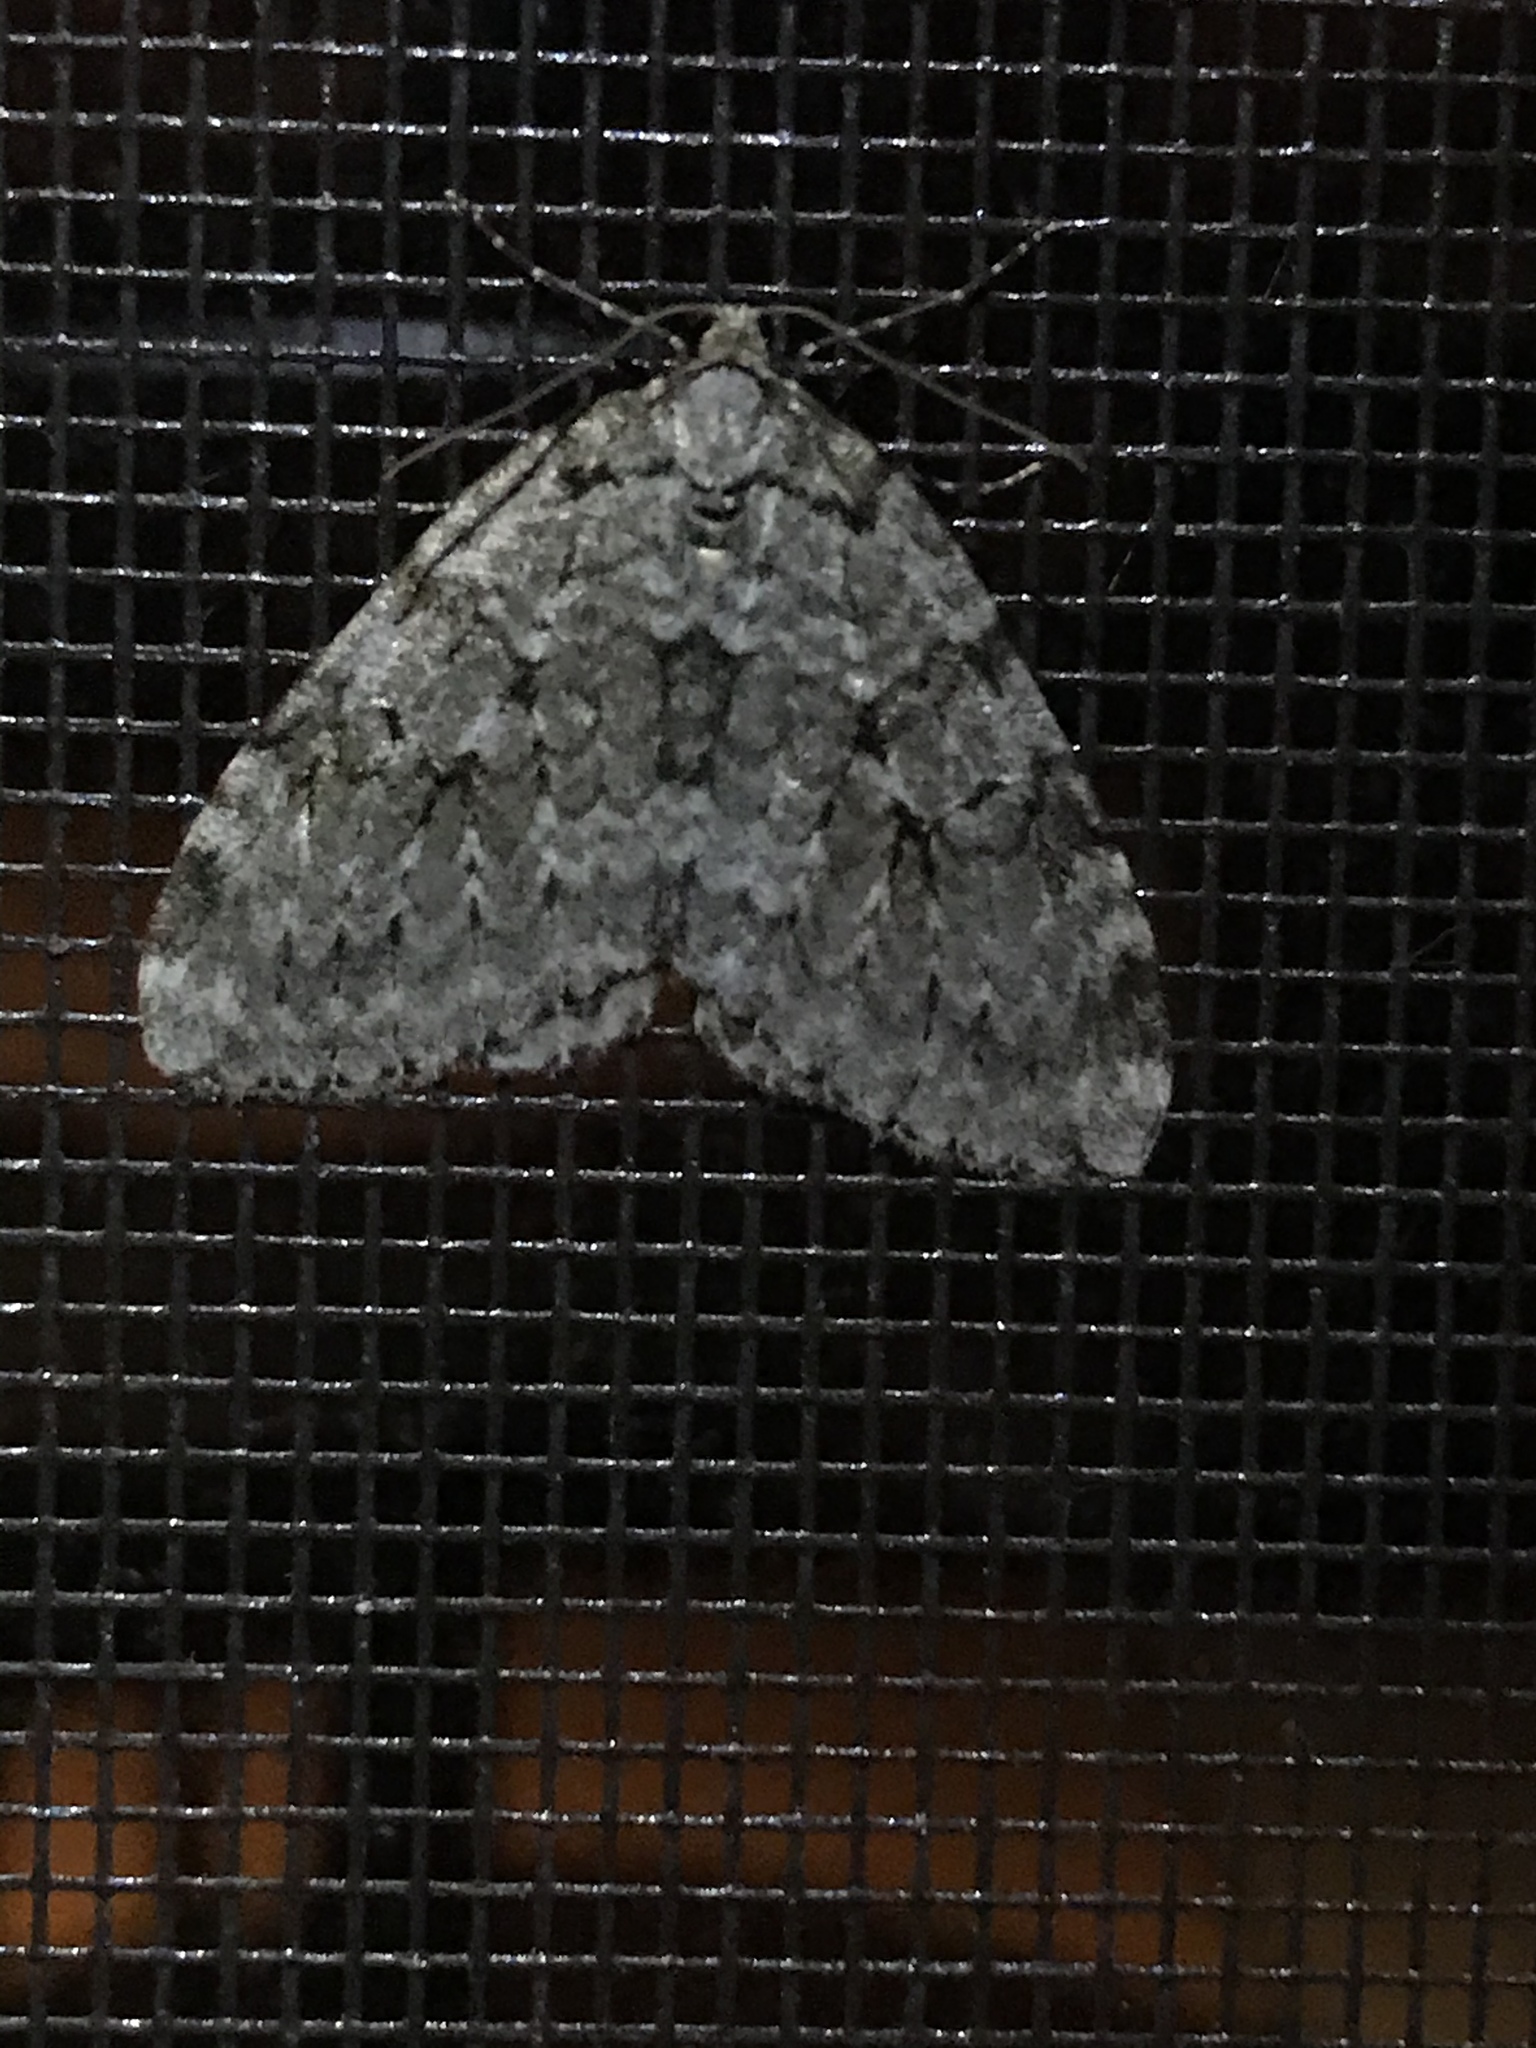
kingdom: Animalia
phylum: Arthropoda
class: Insecta
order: Lepidoptera
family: Geometridae
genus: Epirrita
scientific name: Epirrita autumnata
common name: Autumnal moth
